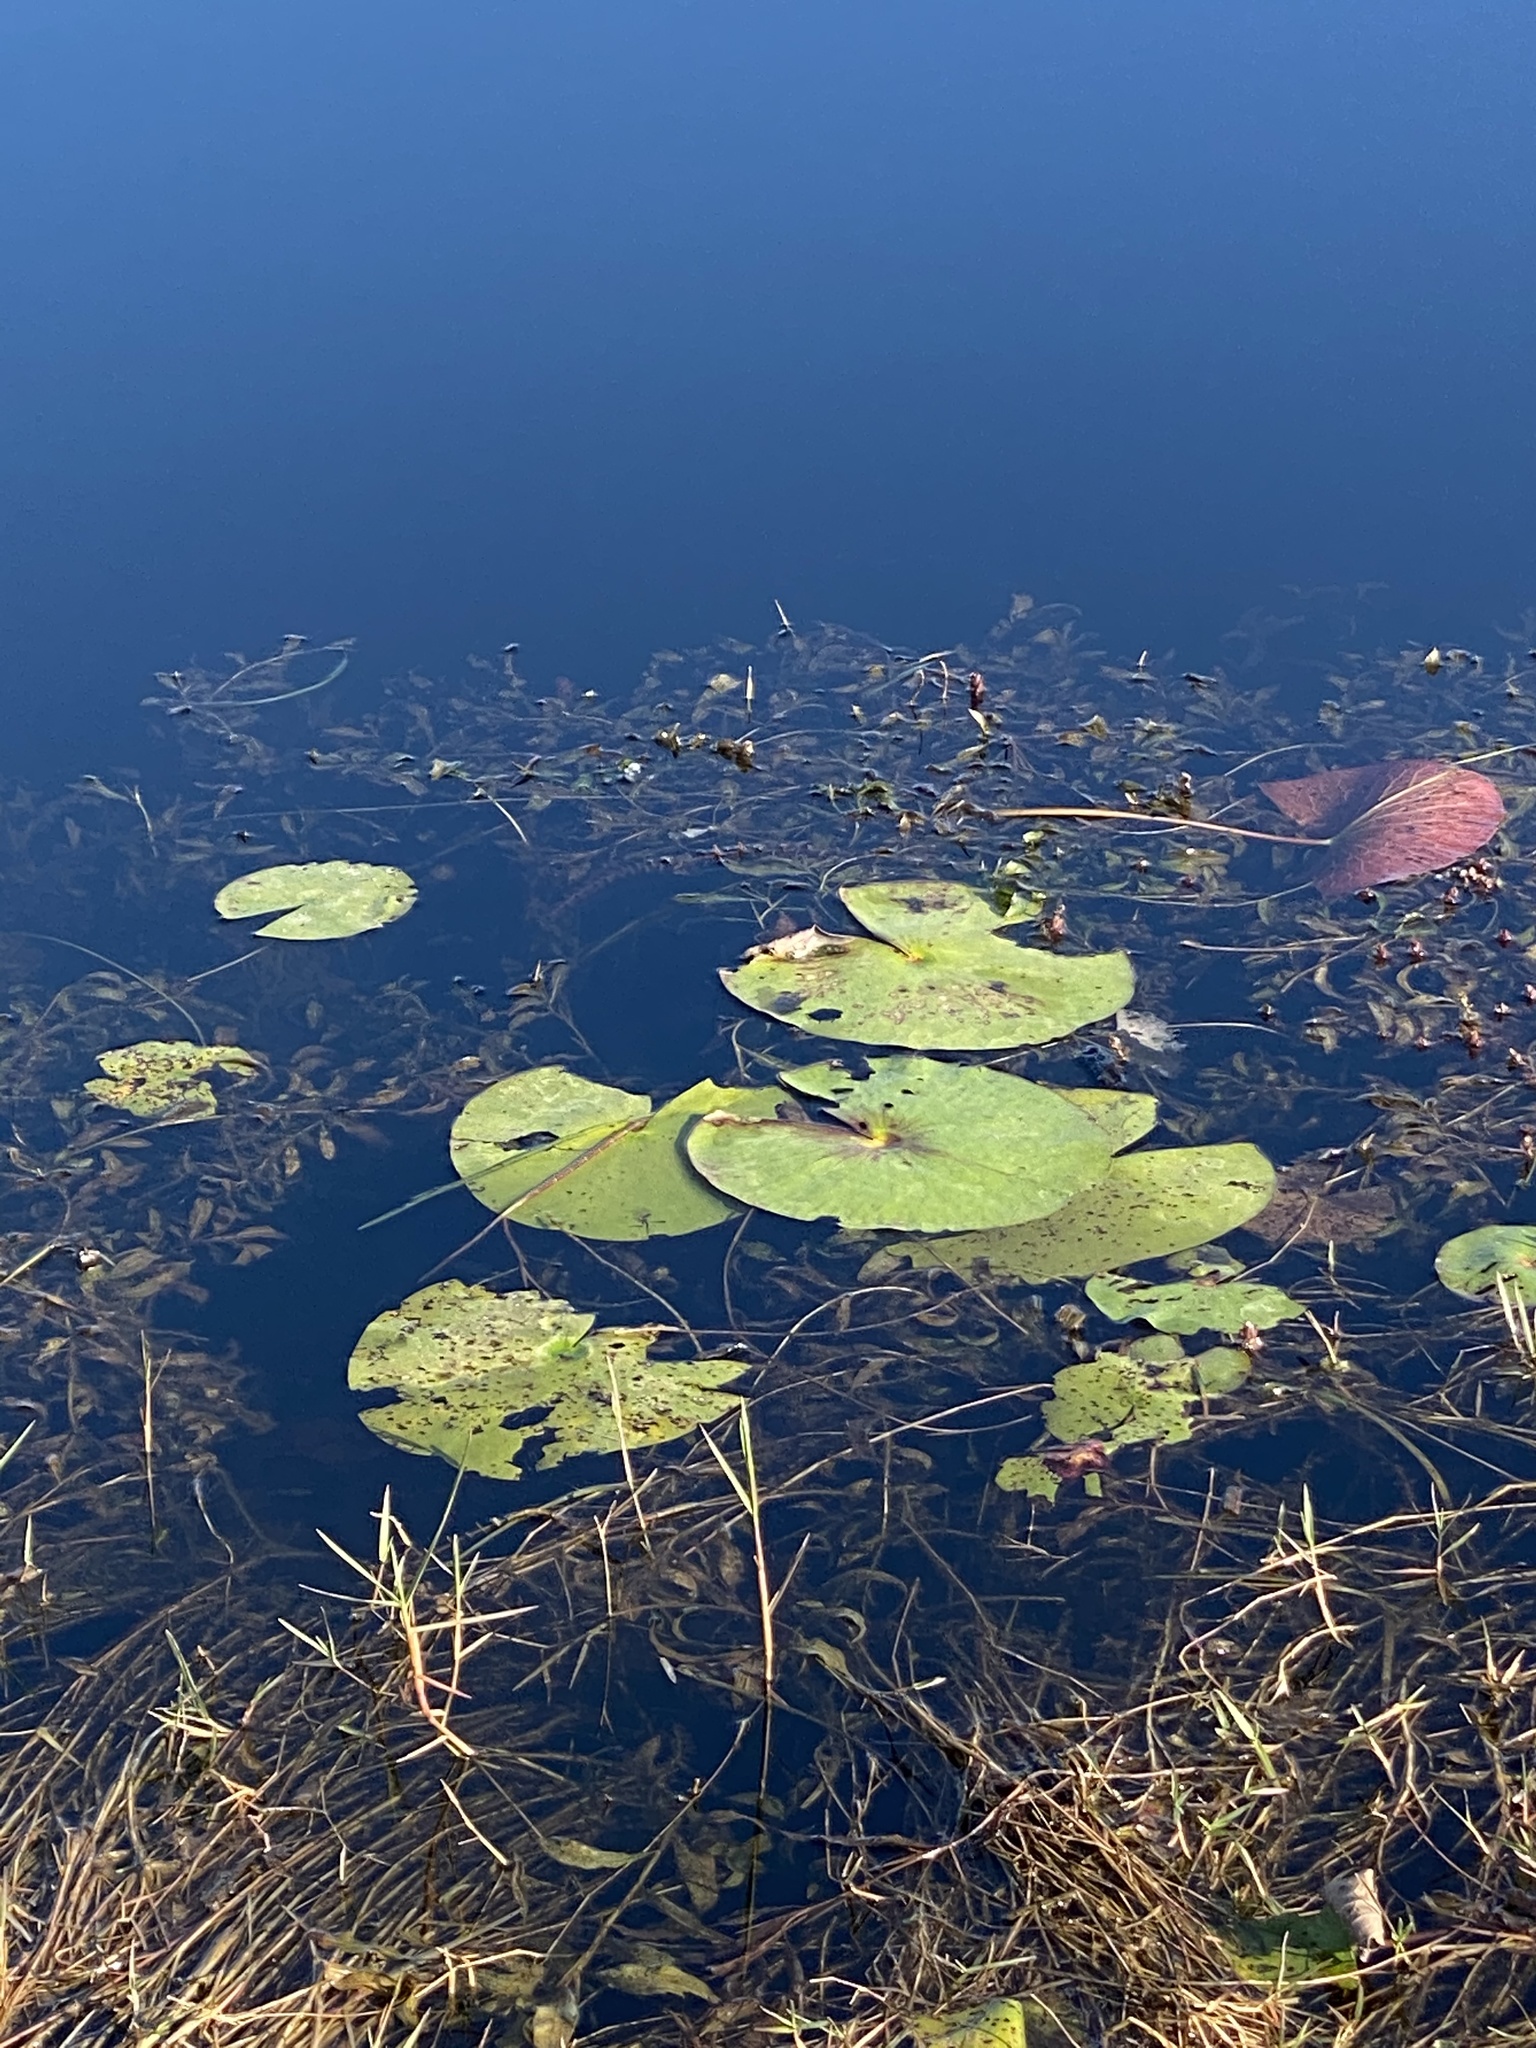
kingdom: Plantae
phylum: Tracheophyta
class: Magnoliopsida
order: Nymphaeales
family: Nymphaeaceae
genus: Nymphaea
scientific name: Nymphaea odorata
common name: Fragrant water-lily
